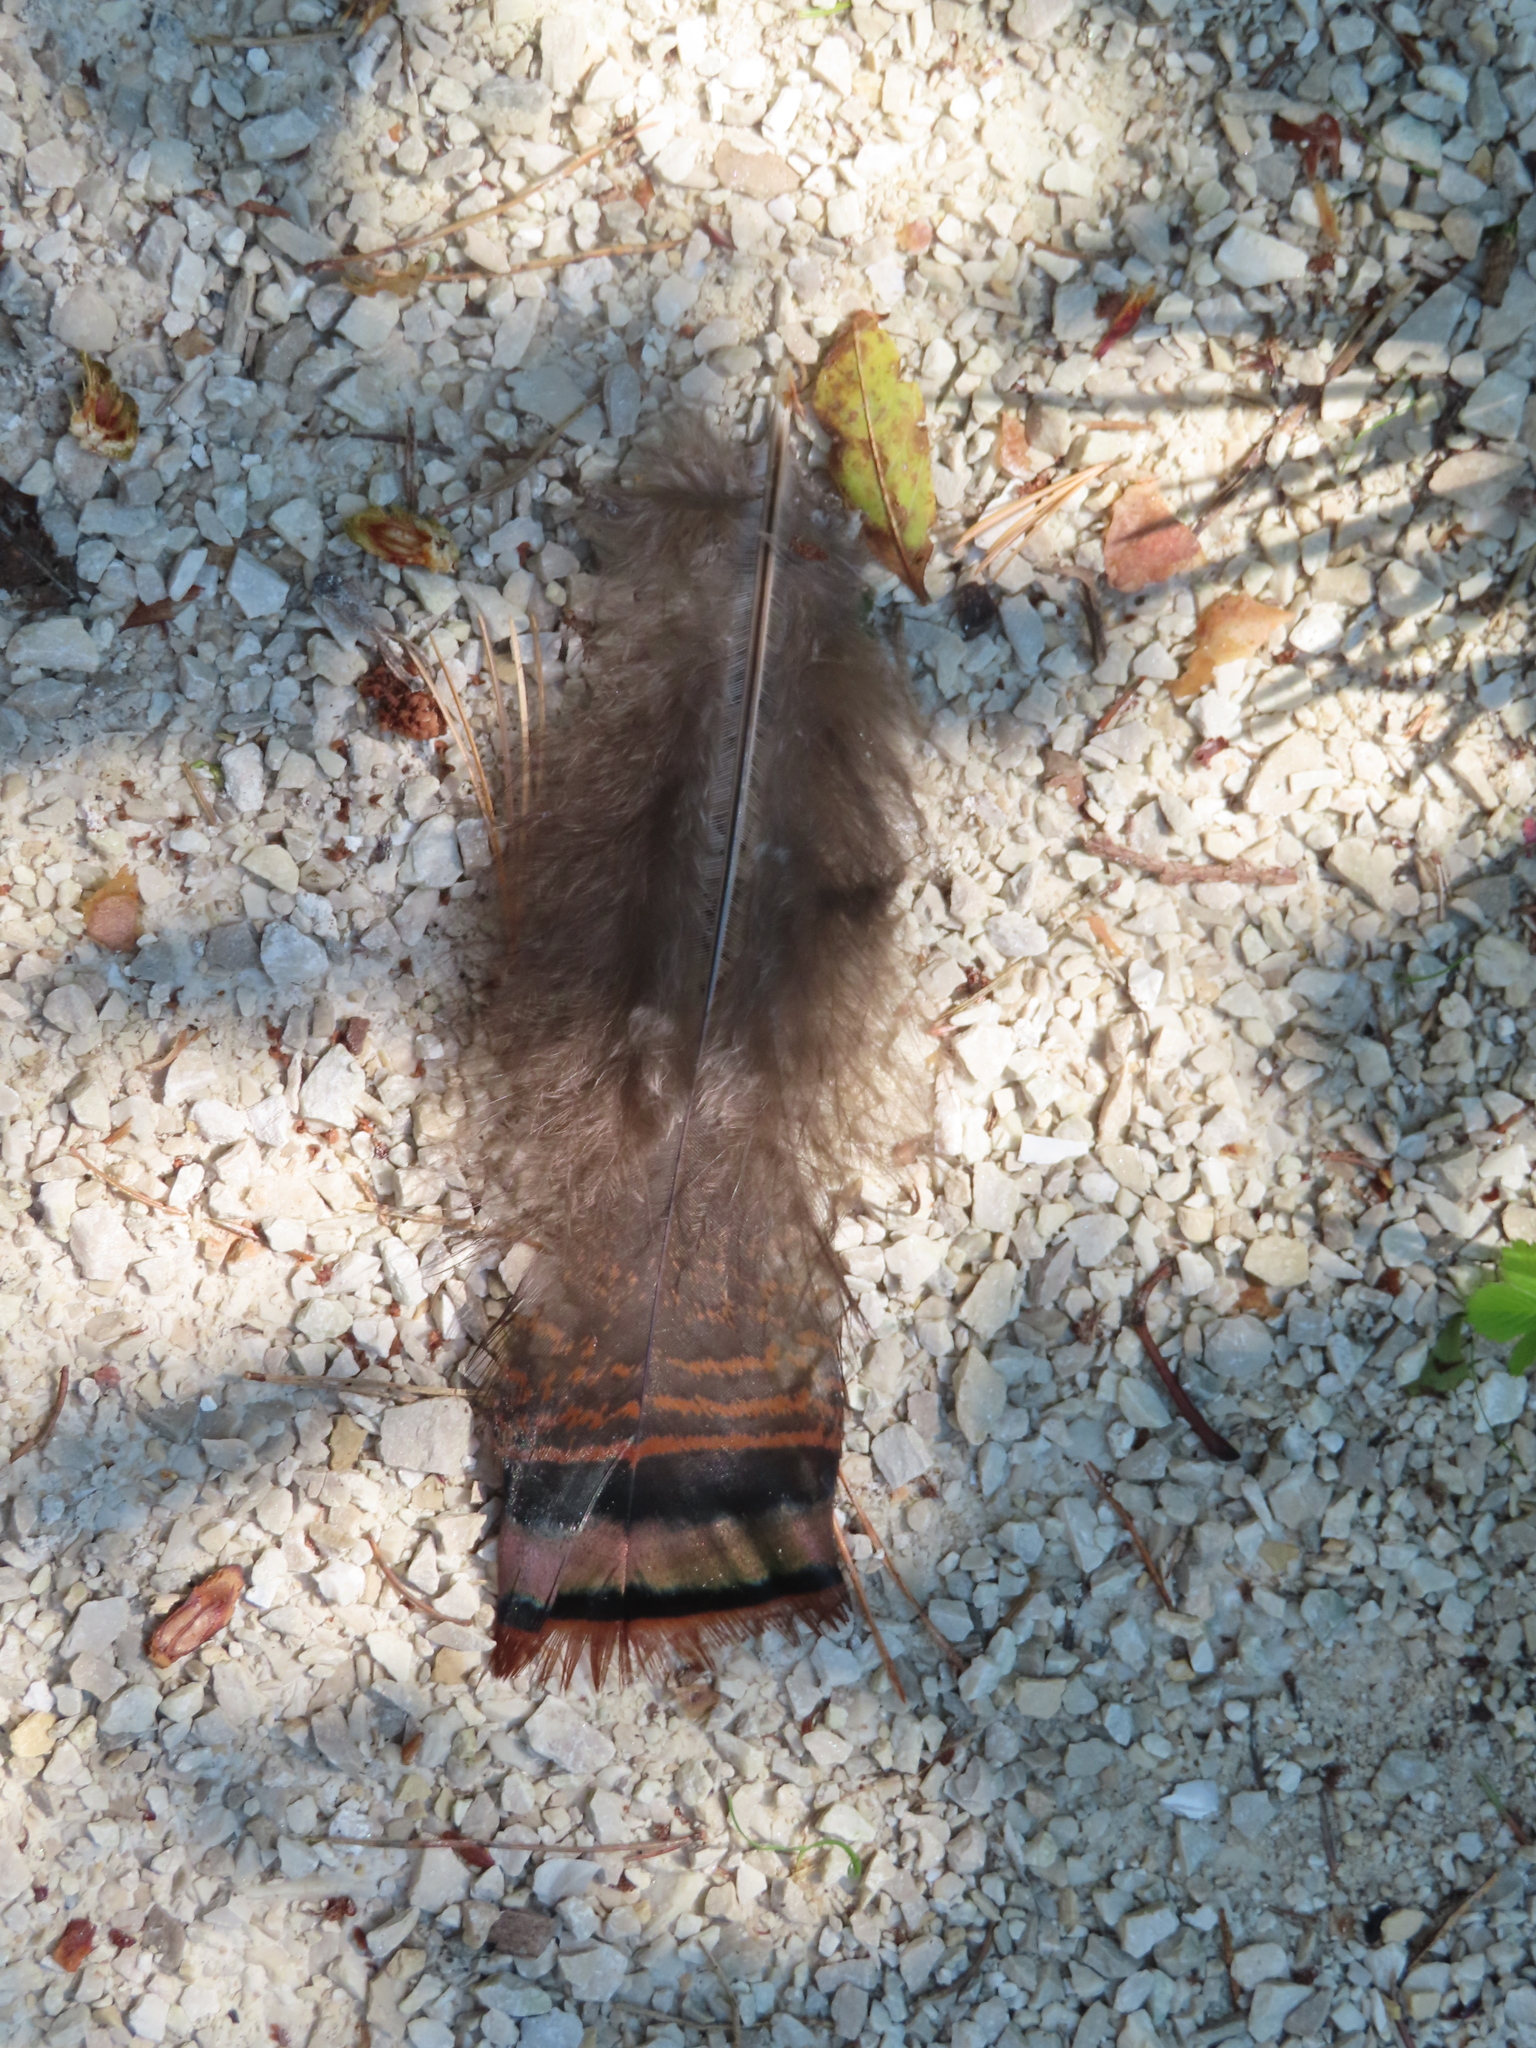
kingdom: Animalia
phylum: Chordata
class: Aves
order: Galliformes
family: Phasianidae
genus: Meleagris
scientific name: Meleagris gallopavo
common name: Wild turkey
